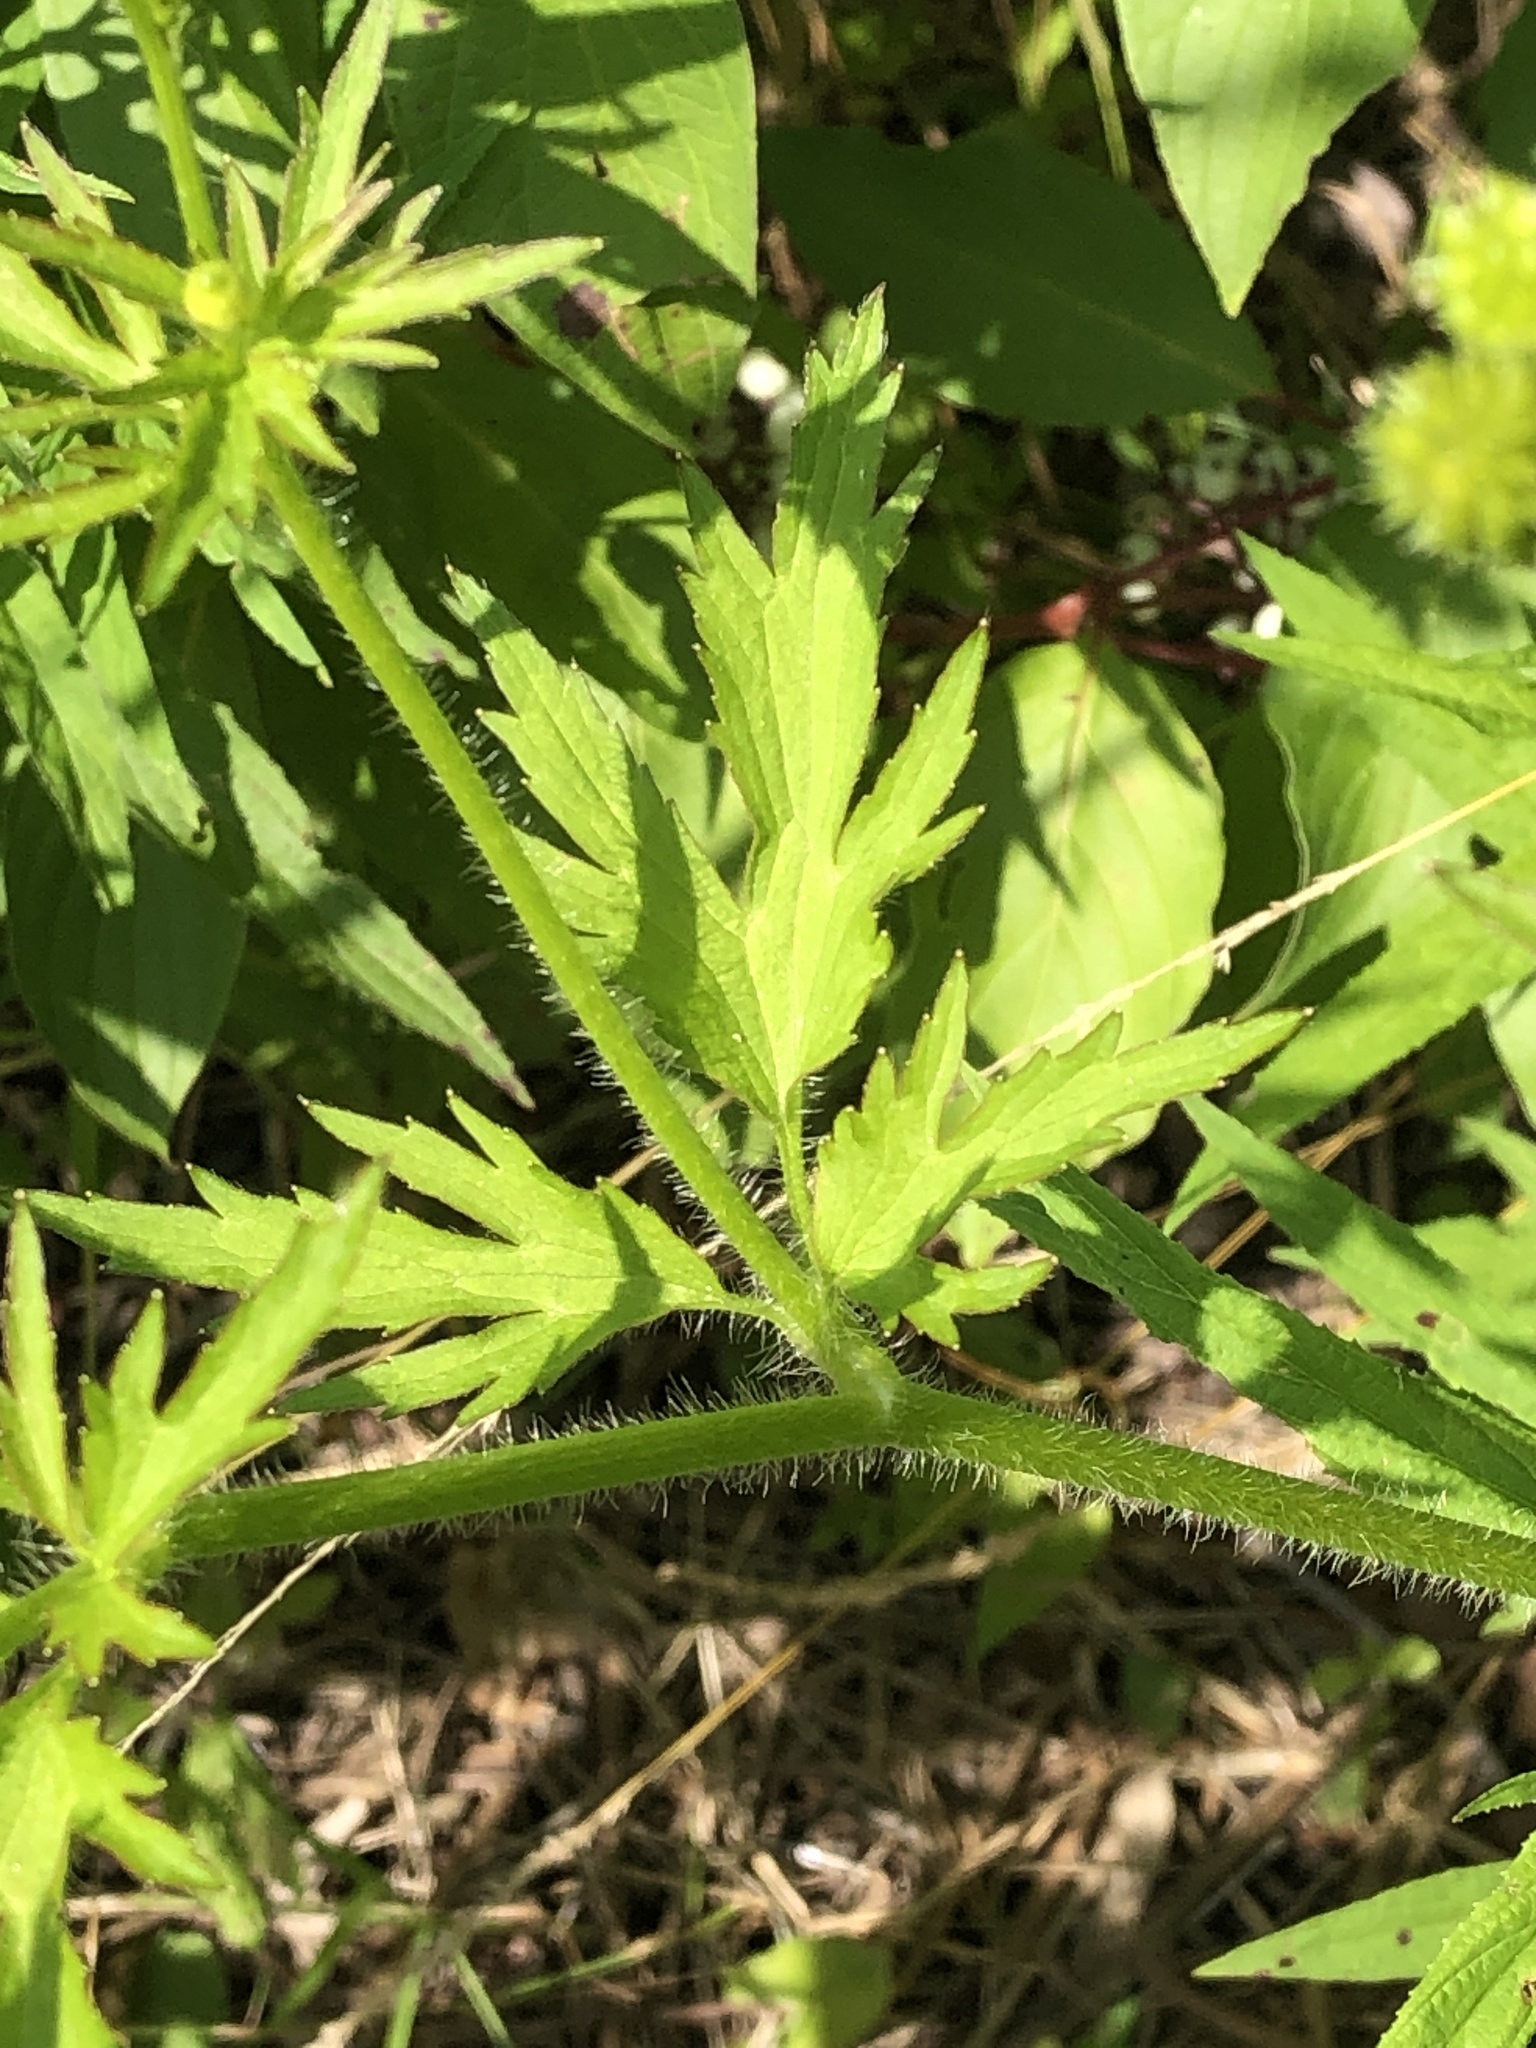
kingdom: Plantae
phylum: Tracheophyta
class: Magnoliopsida
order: Ranunculales
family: Ranunculaceae
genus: Ranunculus
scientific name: Ranunculus pensylvanicus
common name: Bristly buttercup
